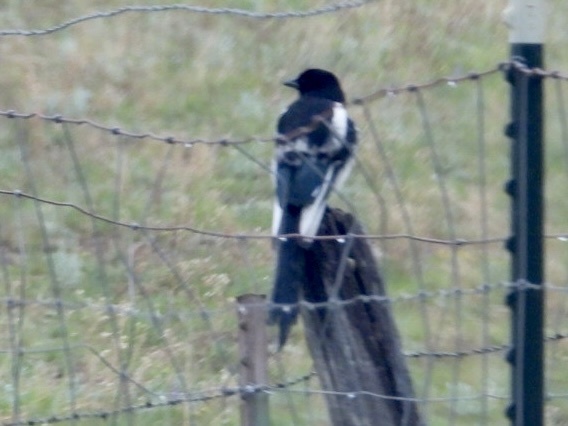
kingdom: Animalia
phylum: Chordata
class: Aves
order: Passeriformes
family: Corvidae
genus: Pica
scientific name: Pica hudsonia
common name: Black-billed magpie
